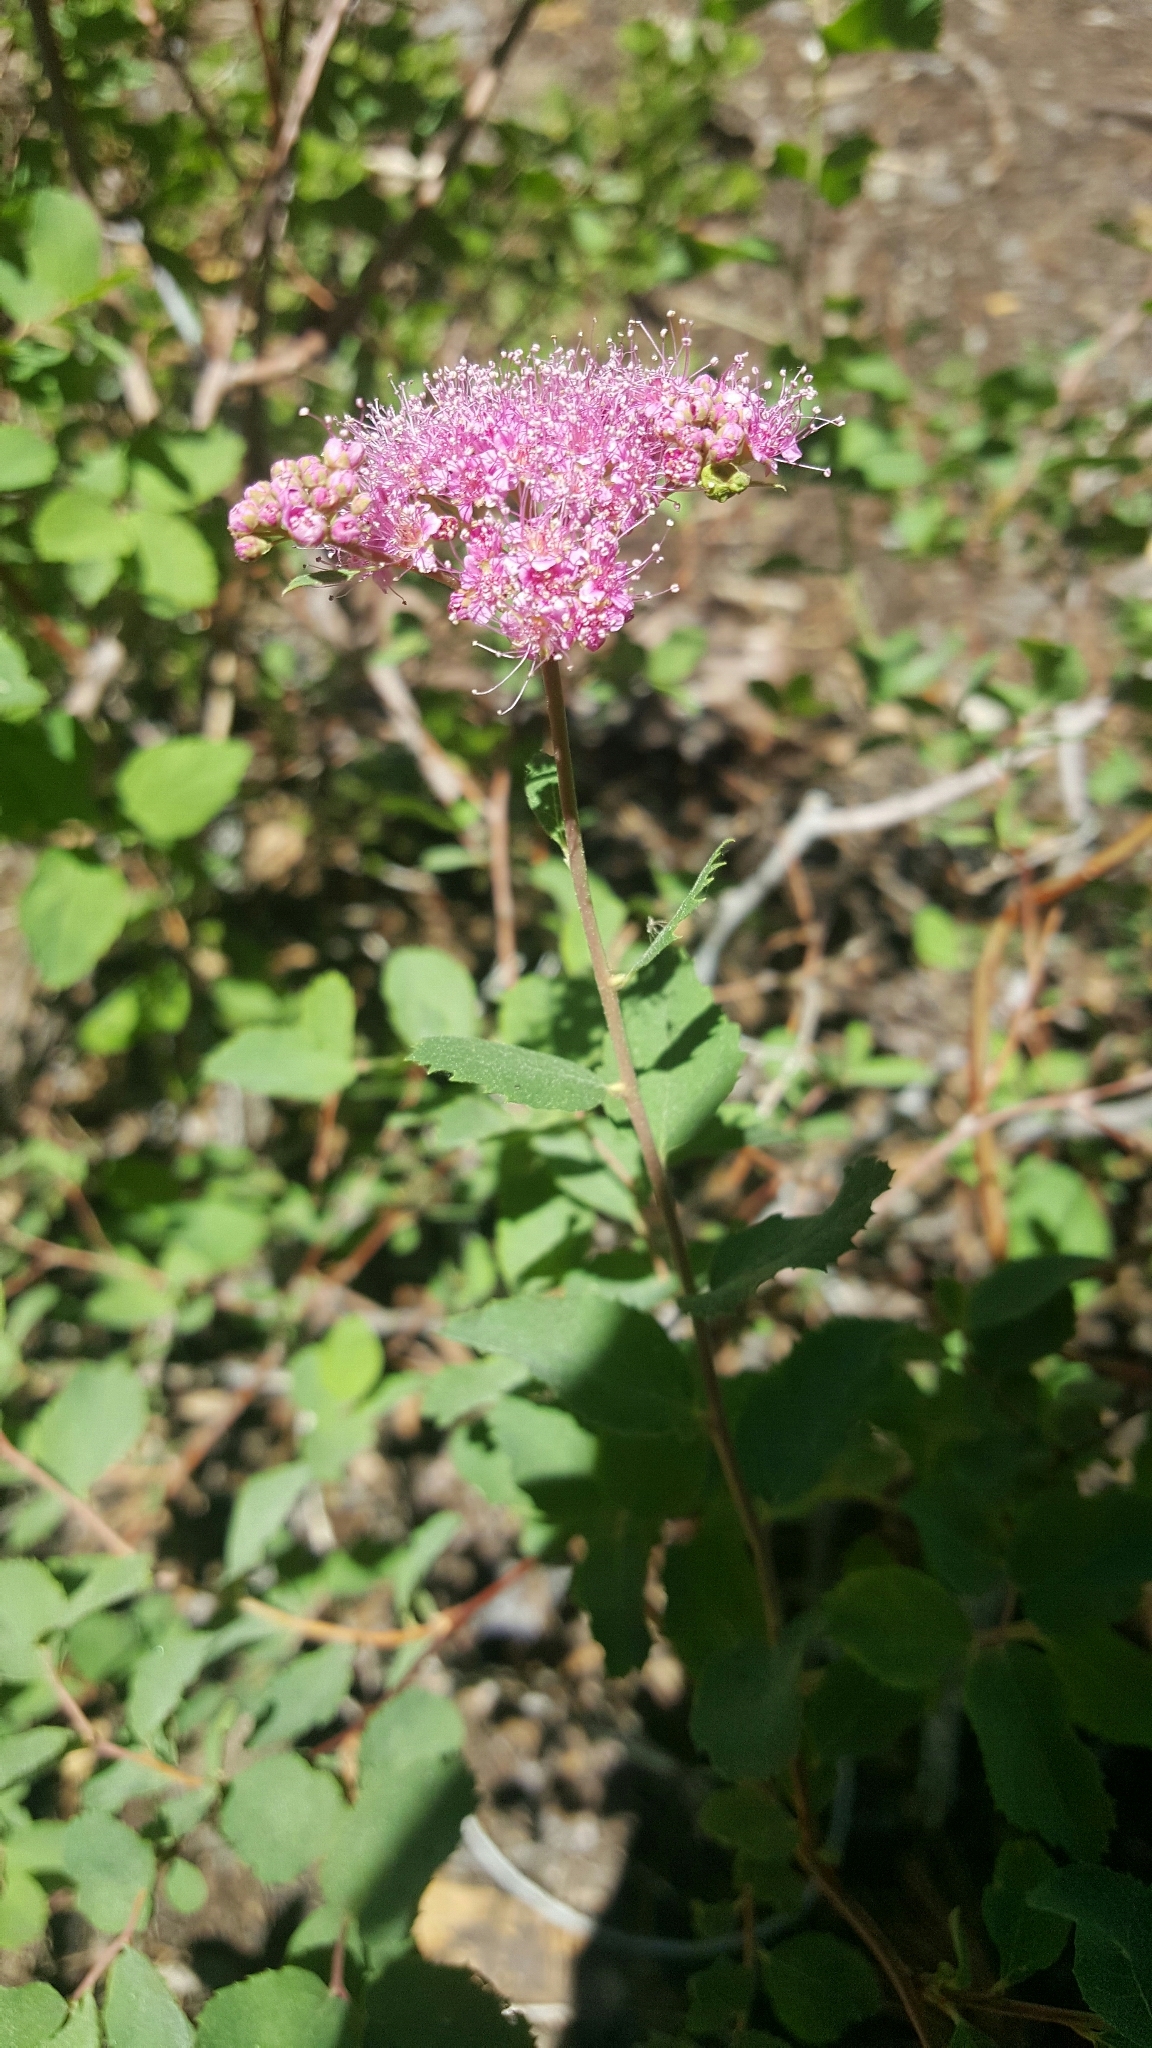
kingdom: Plantae
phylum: Tracheophyta
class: Magnoliopsida
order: Rosales
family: Rosaceae
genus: Spiraea
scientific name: Spiraea splendens
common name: Subalpine meadowsweet
